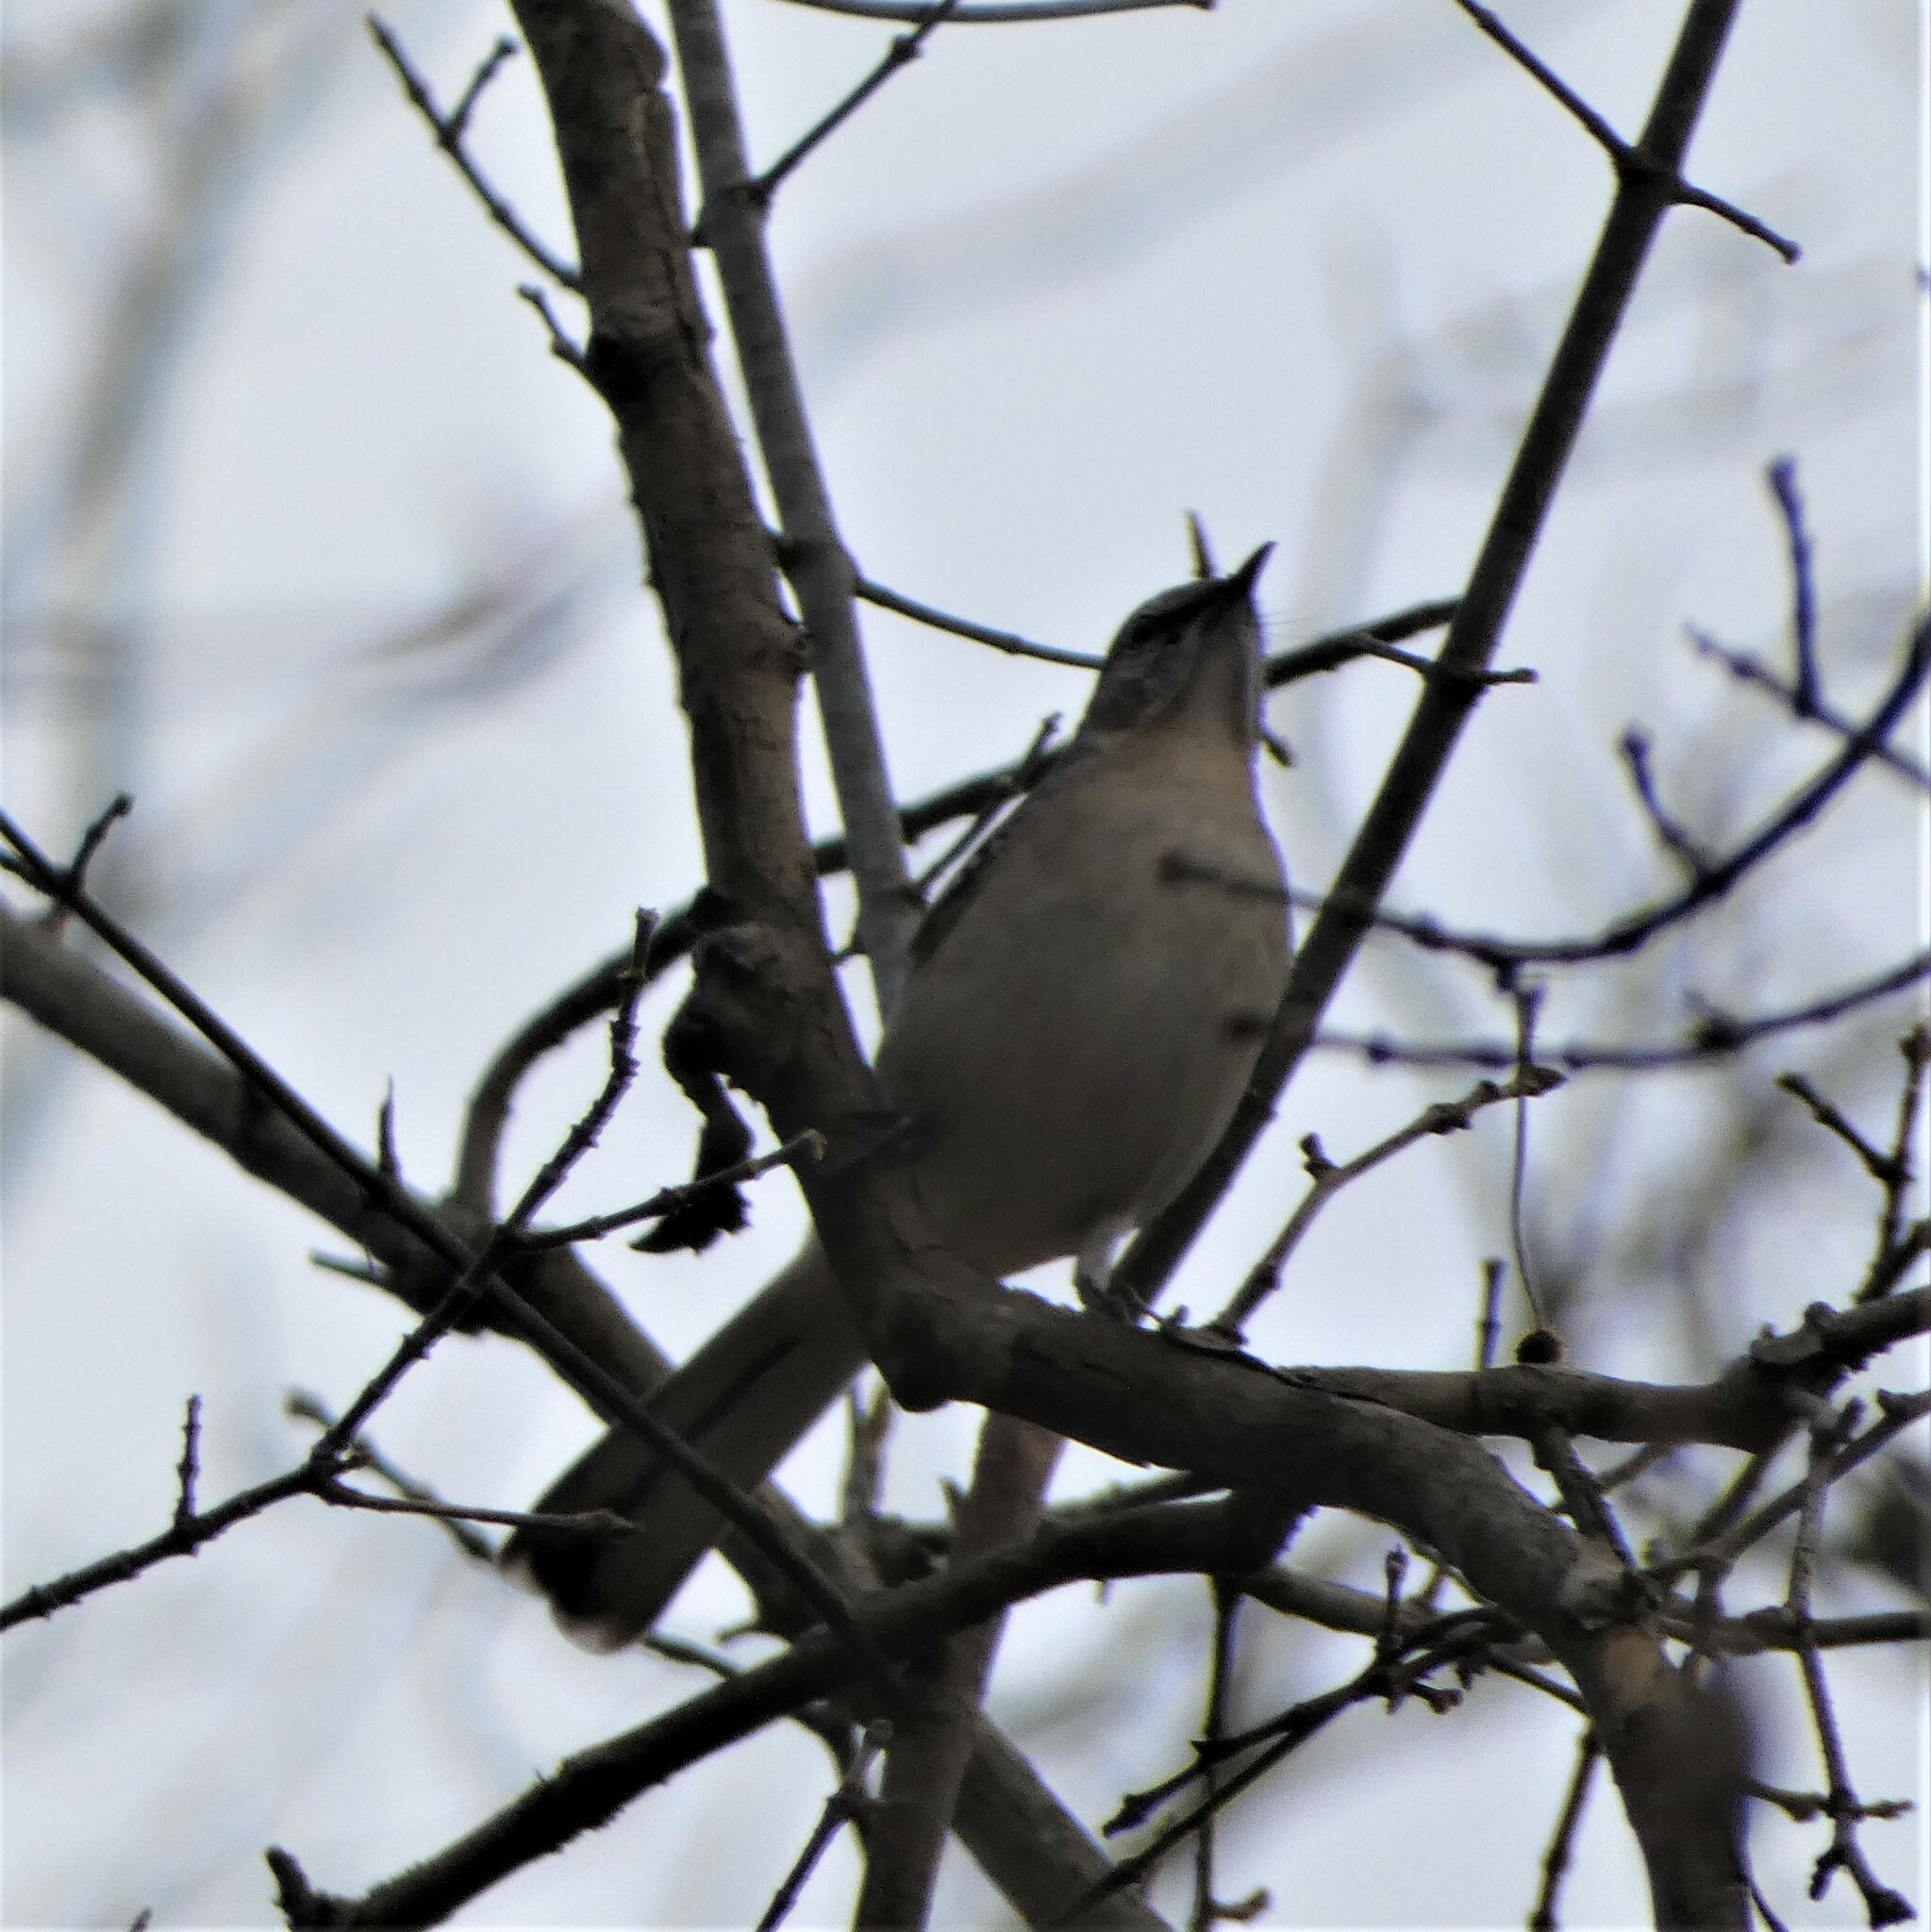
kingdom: Animalia
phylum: Chordata
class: Aves
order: Passeriformes
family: Mimidae
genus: Mimus
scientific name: Mimus polyglottos
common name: Northern mockingbird
